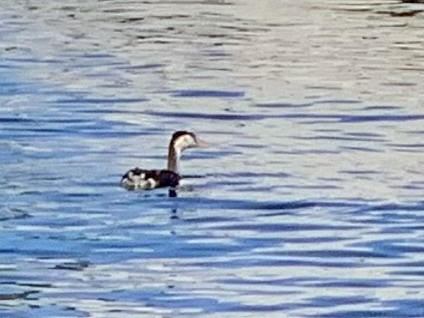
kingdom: Animalia
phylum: Chordata
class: Aves
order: Podicipediformes
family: Podicipedidae
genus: Podiceps
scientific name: Podiceps cristatus
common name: Great crested grebe
